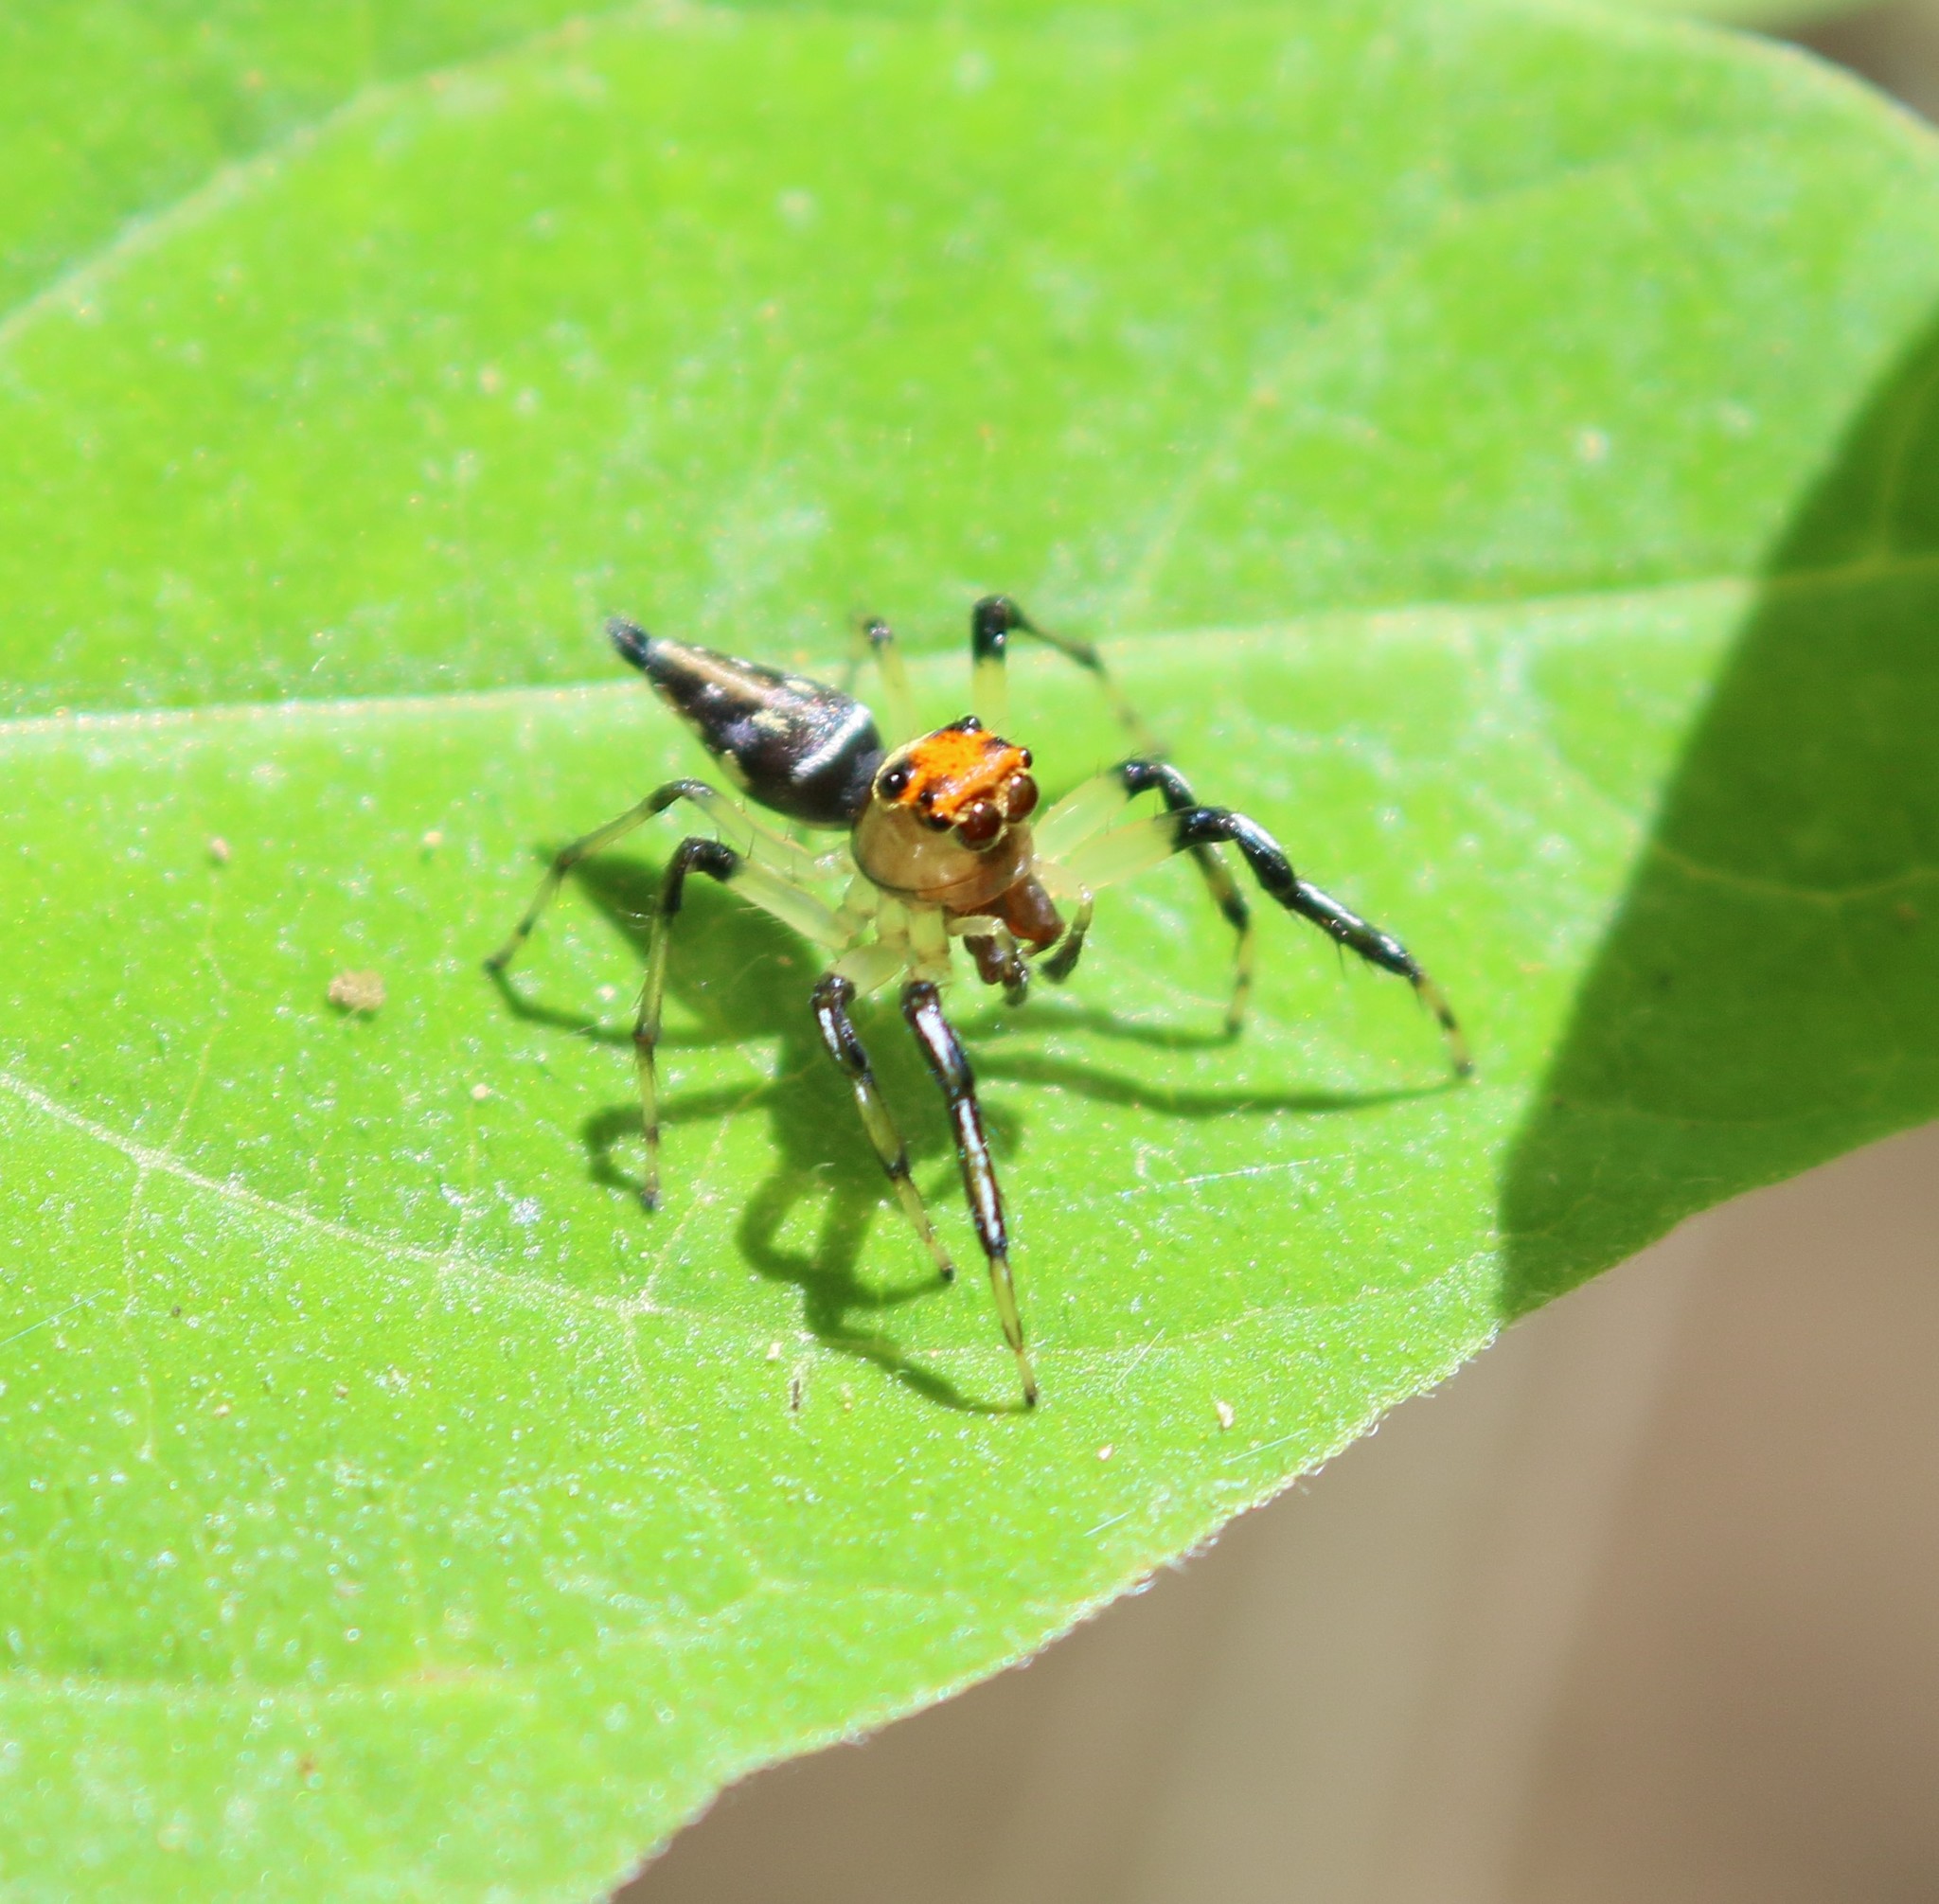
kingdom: Animalia
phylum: Arthropoda
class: Arachnida
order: Araneae
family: Salticidae
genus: Hypaeus
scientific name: Hypaeus benignus
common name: Jumping spiders
